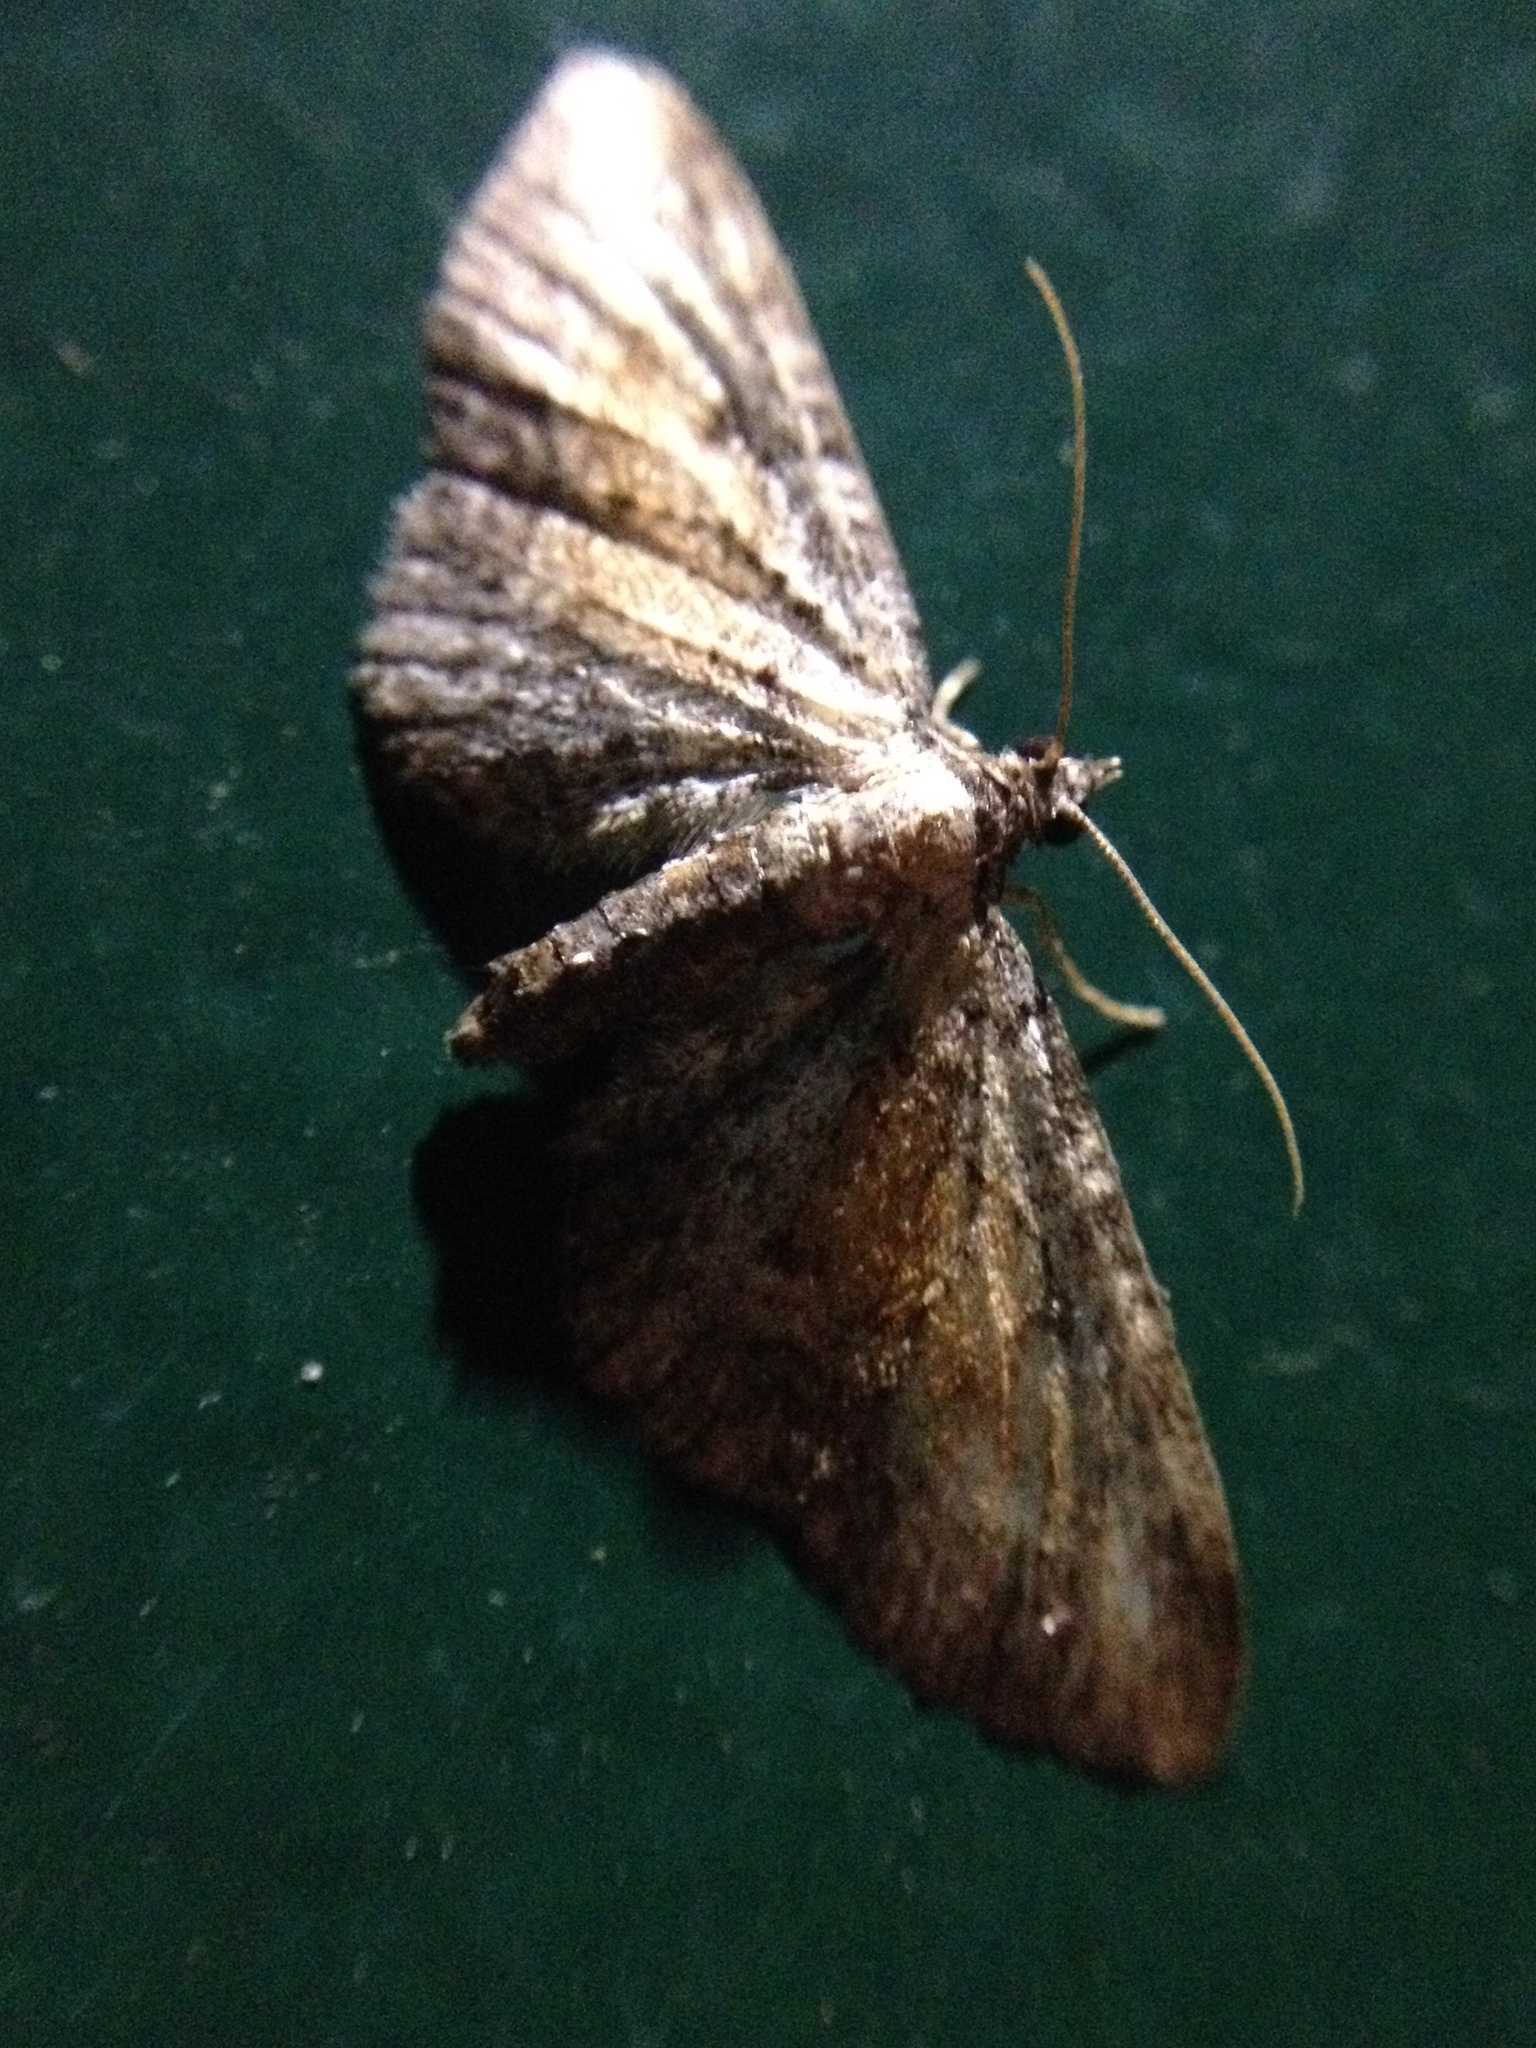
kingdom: Animalia
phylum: Arthropoda
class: Insecta
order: Lepidoptera
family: Geometridae
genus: Eupithecia
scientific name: Eupithecia icterata
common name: Tawny speckled pug
